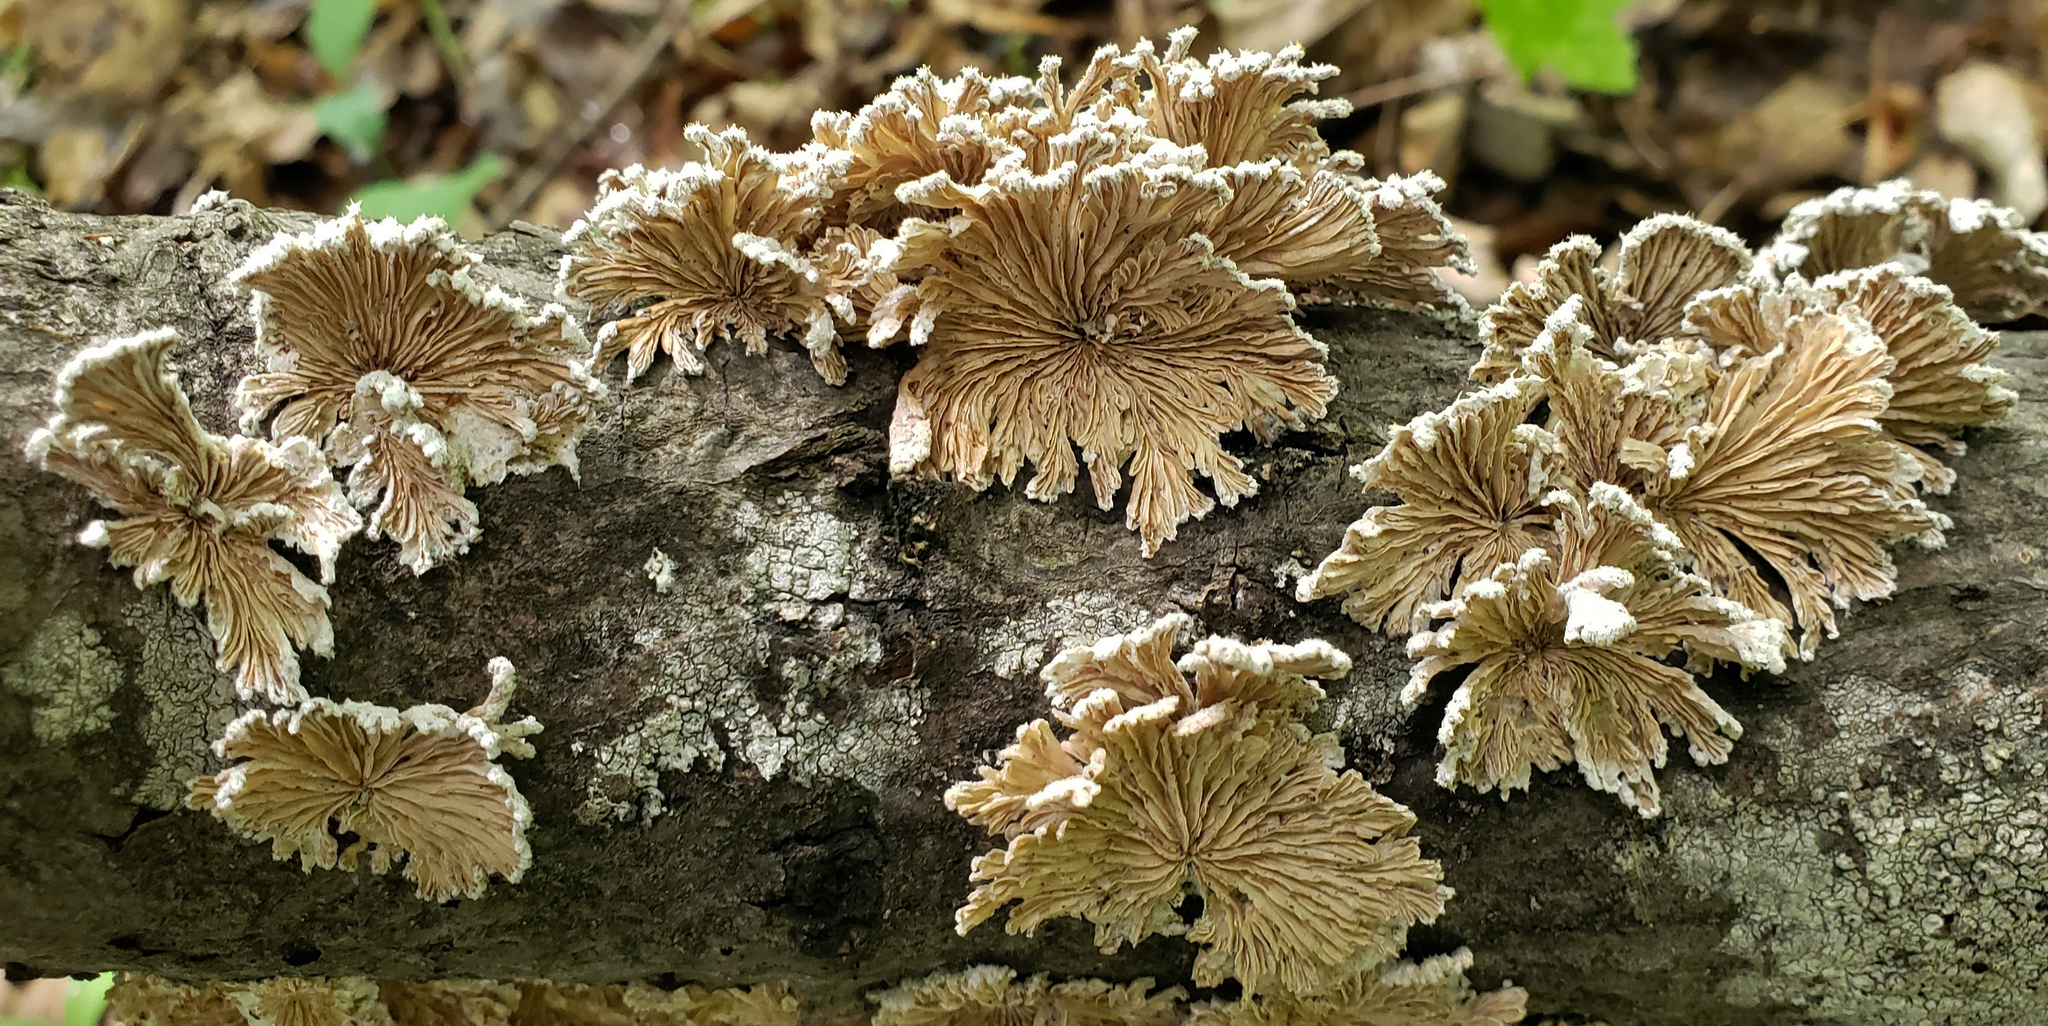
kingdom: Fungi
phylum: Basidiomycota
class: Agaricomycetes
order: Agaricales
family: Schizophyllaceae
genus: Schizophyllum
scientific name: Schizophyllum commune
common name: Common porecrust
